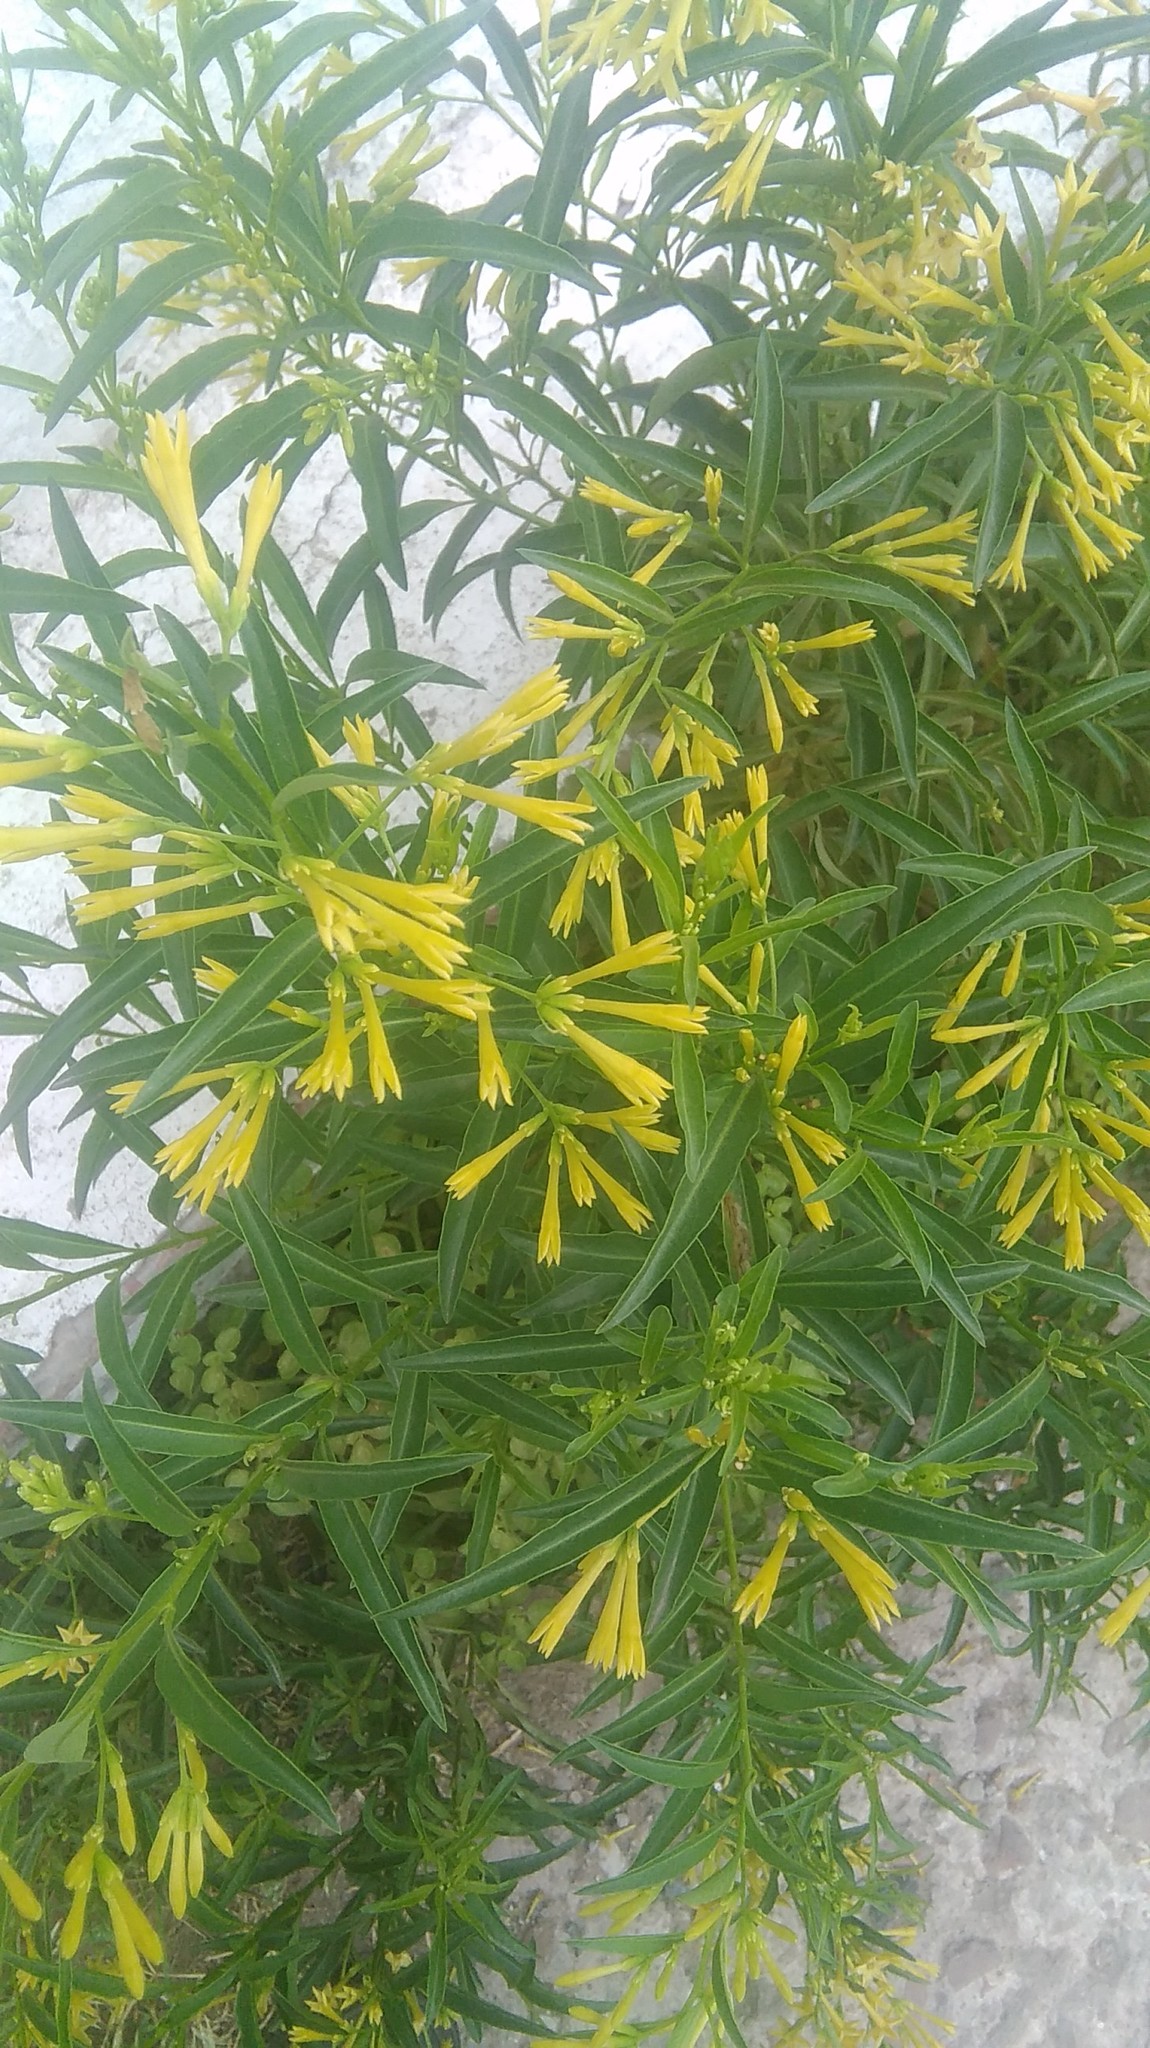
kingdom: Plantae
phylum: Tracheophyta
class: Magnoliopsida
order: Solanales
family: Solanaceae
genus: Cestrum
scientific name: Cestrum parqui
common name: Chilean cestrum
